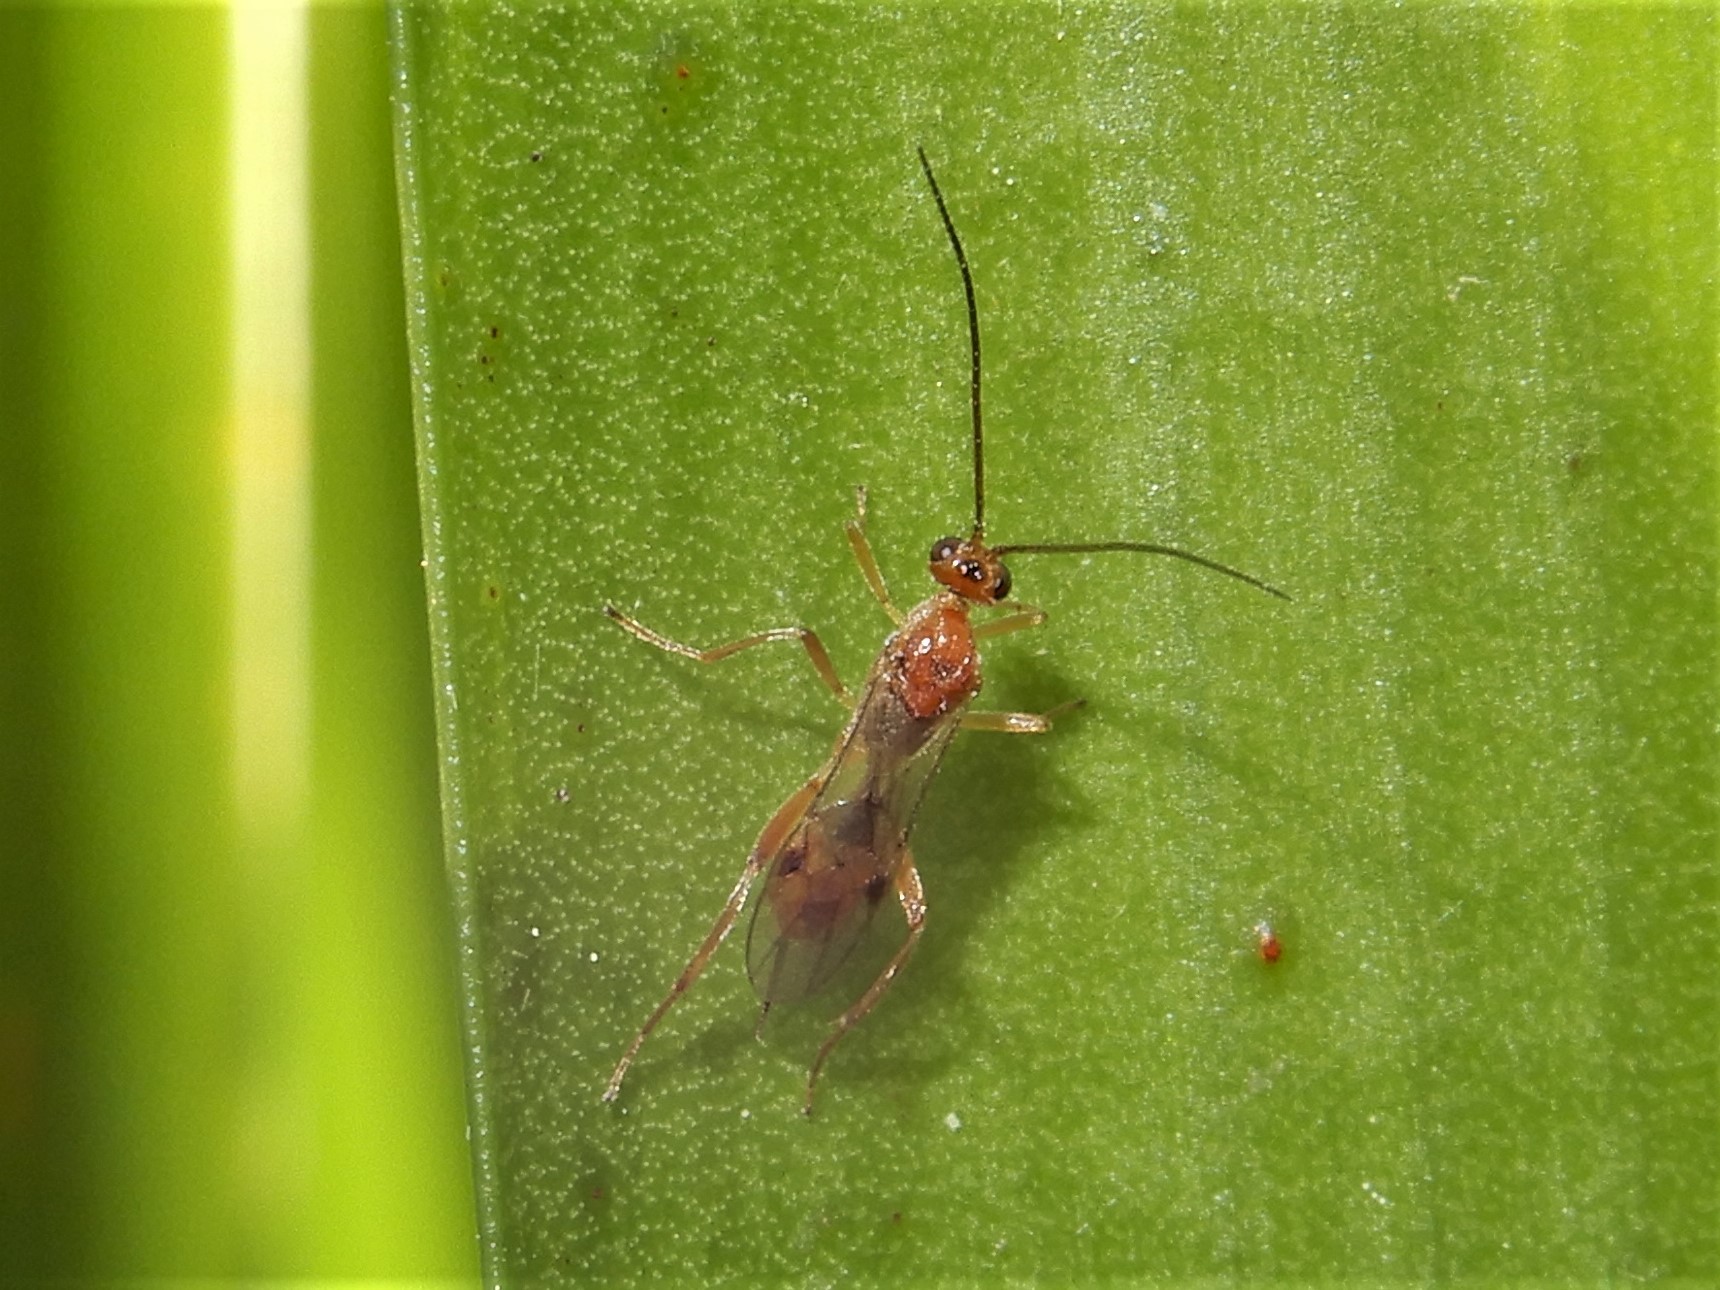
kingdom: Animalia
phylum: Arthropoda
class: Insecta
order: Hymenoptera
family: Braconidae
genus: Meteorus
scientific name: Meteorus pulchricornis
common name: Braconid wasp
